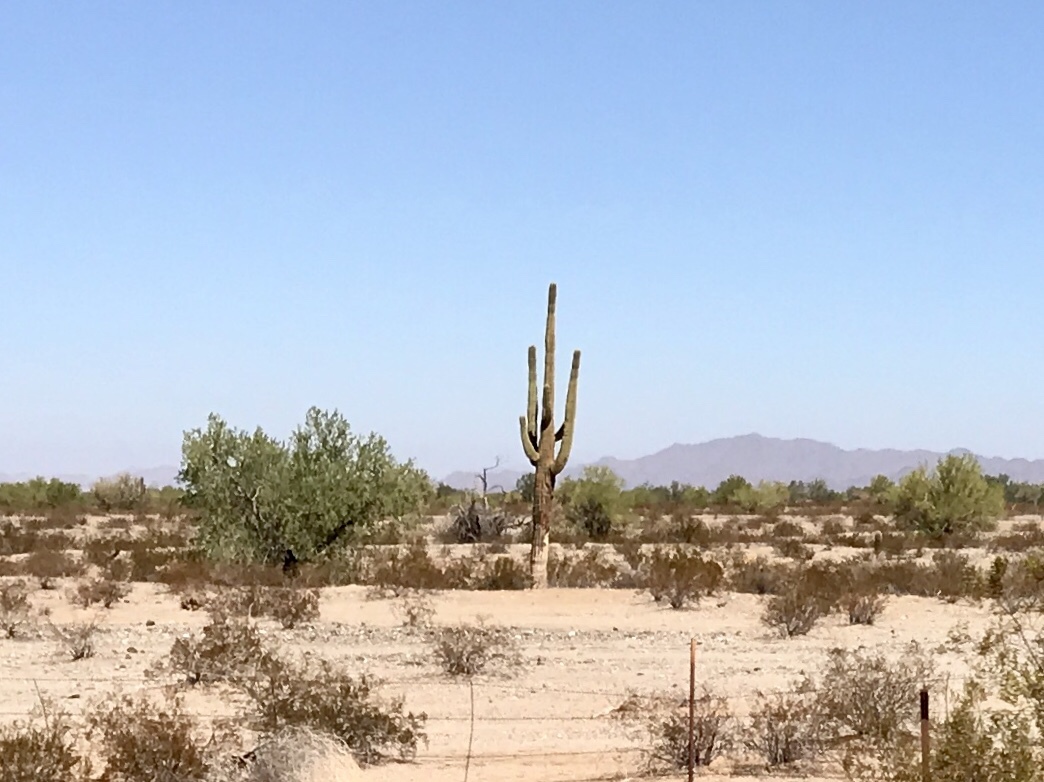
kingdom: Plantae
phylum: Tracheophyta
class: Magnoliopsida
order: Caryophyllales
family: Cactaceae
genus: Carnegiea
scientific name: Carnegiea gigantea
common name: Saguaro
